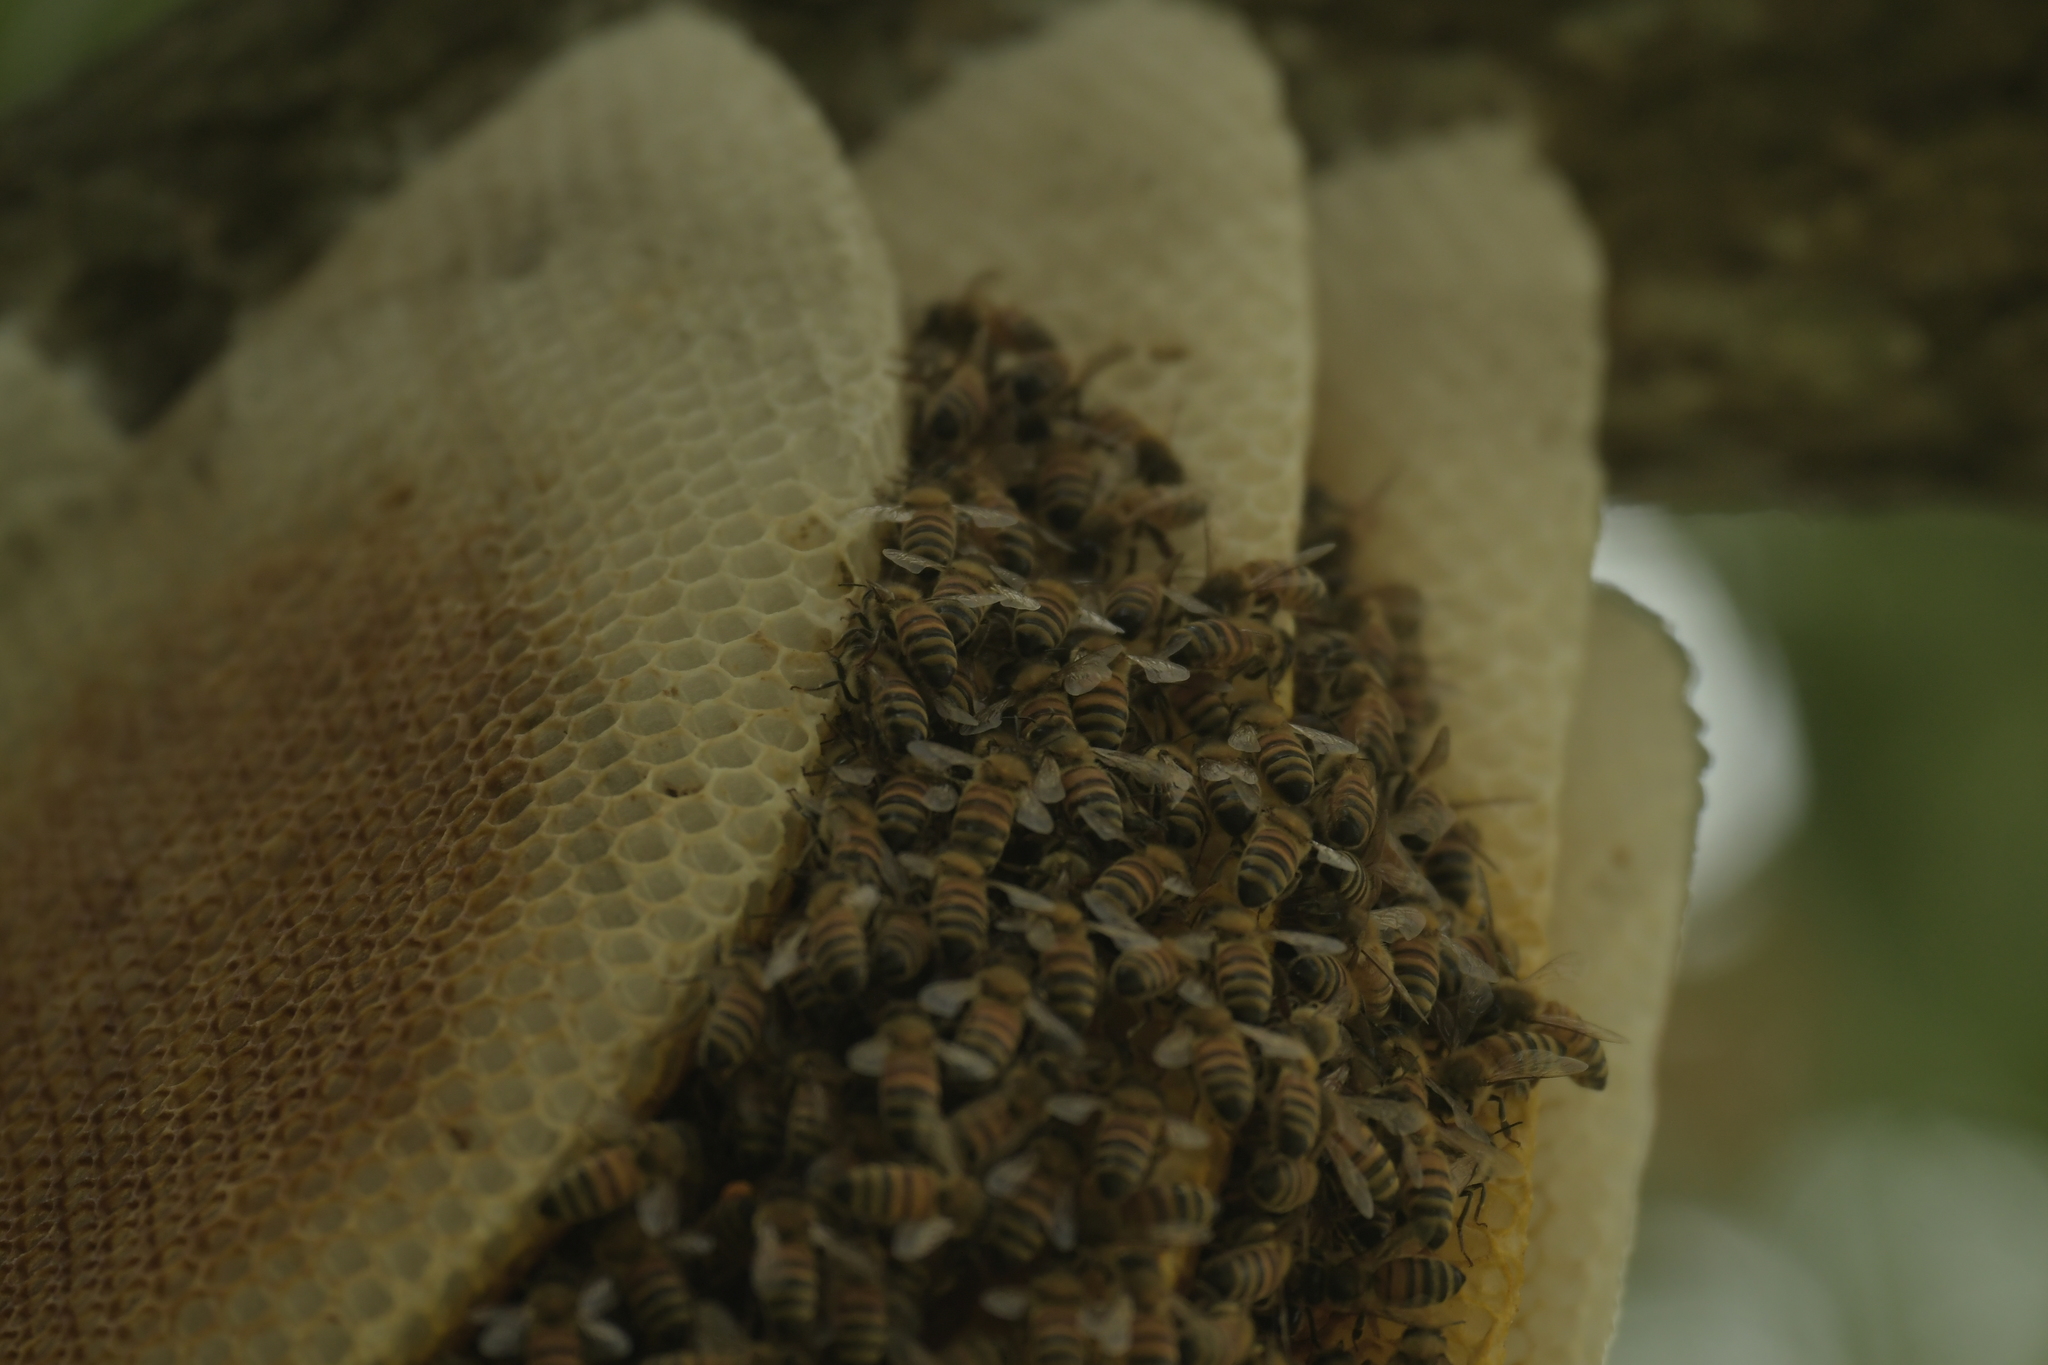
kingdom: Animalia
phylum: Arthropoda
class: Insecta
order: Hymenoptera
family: Apidae
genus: Apis
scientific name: Apis mellifera
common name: Honey bee
